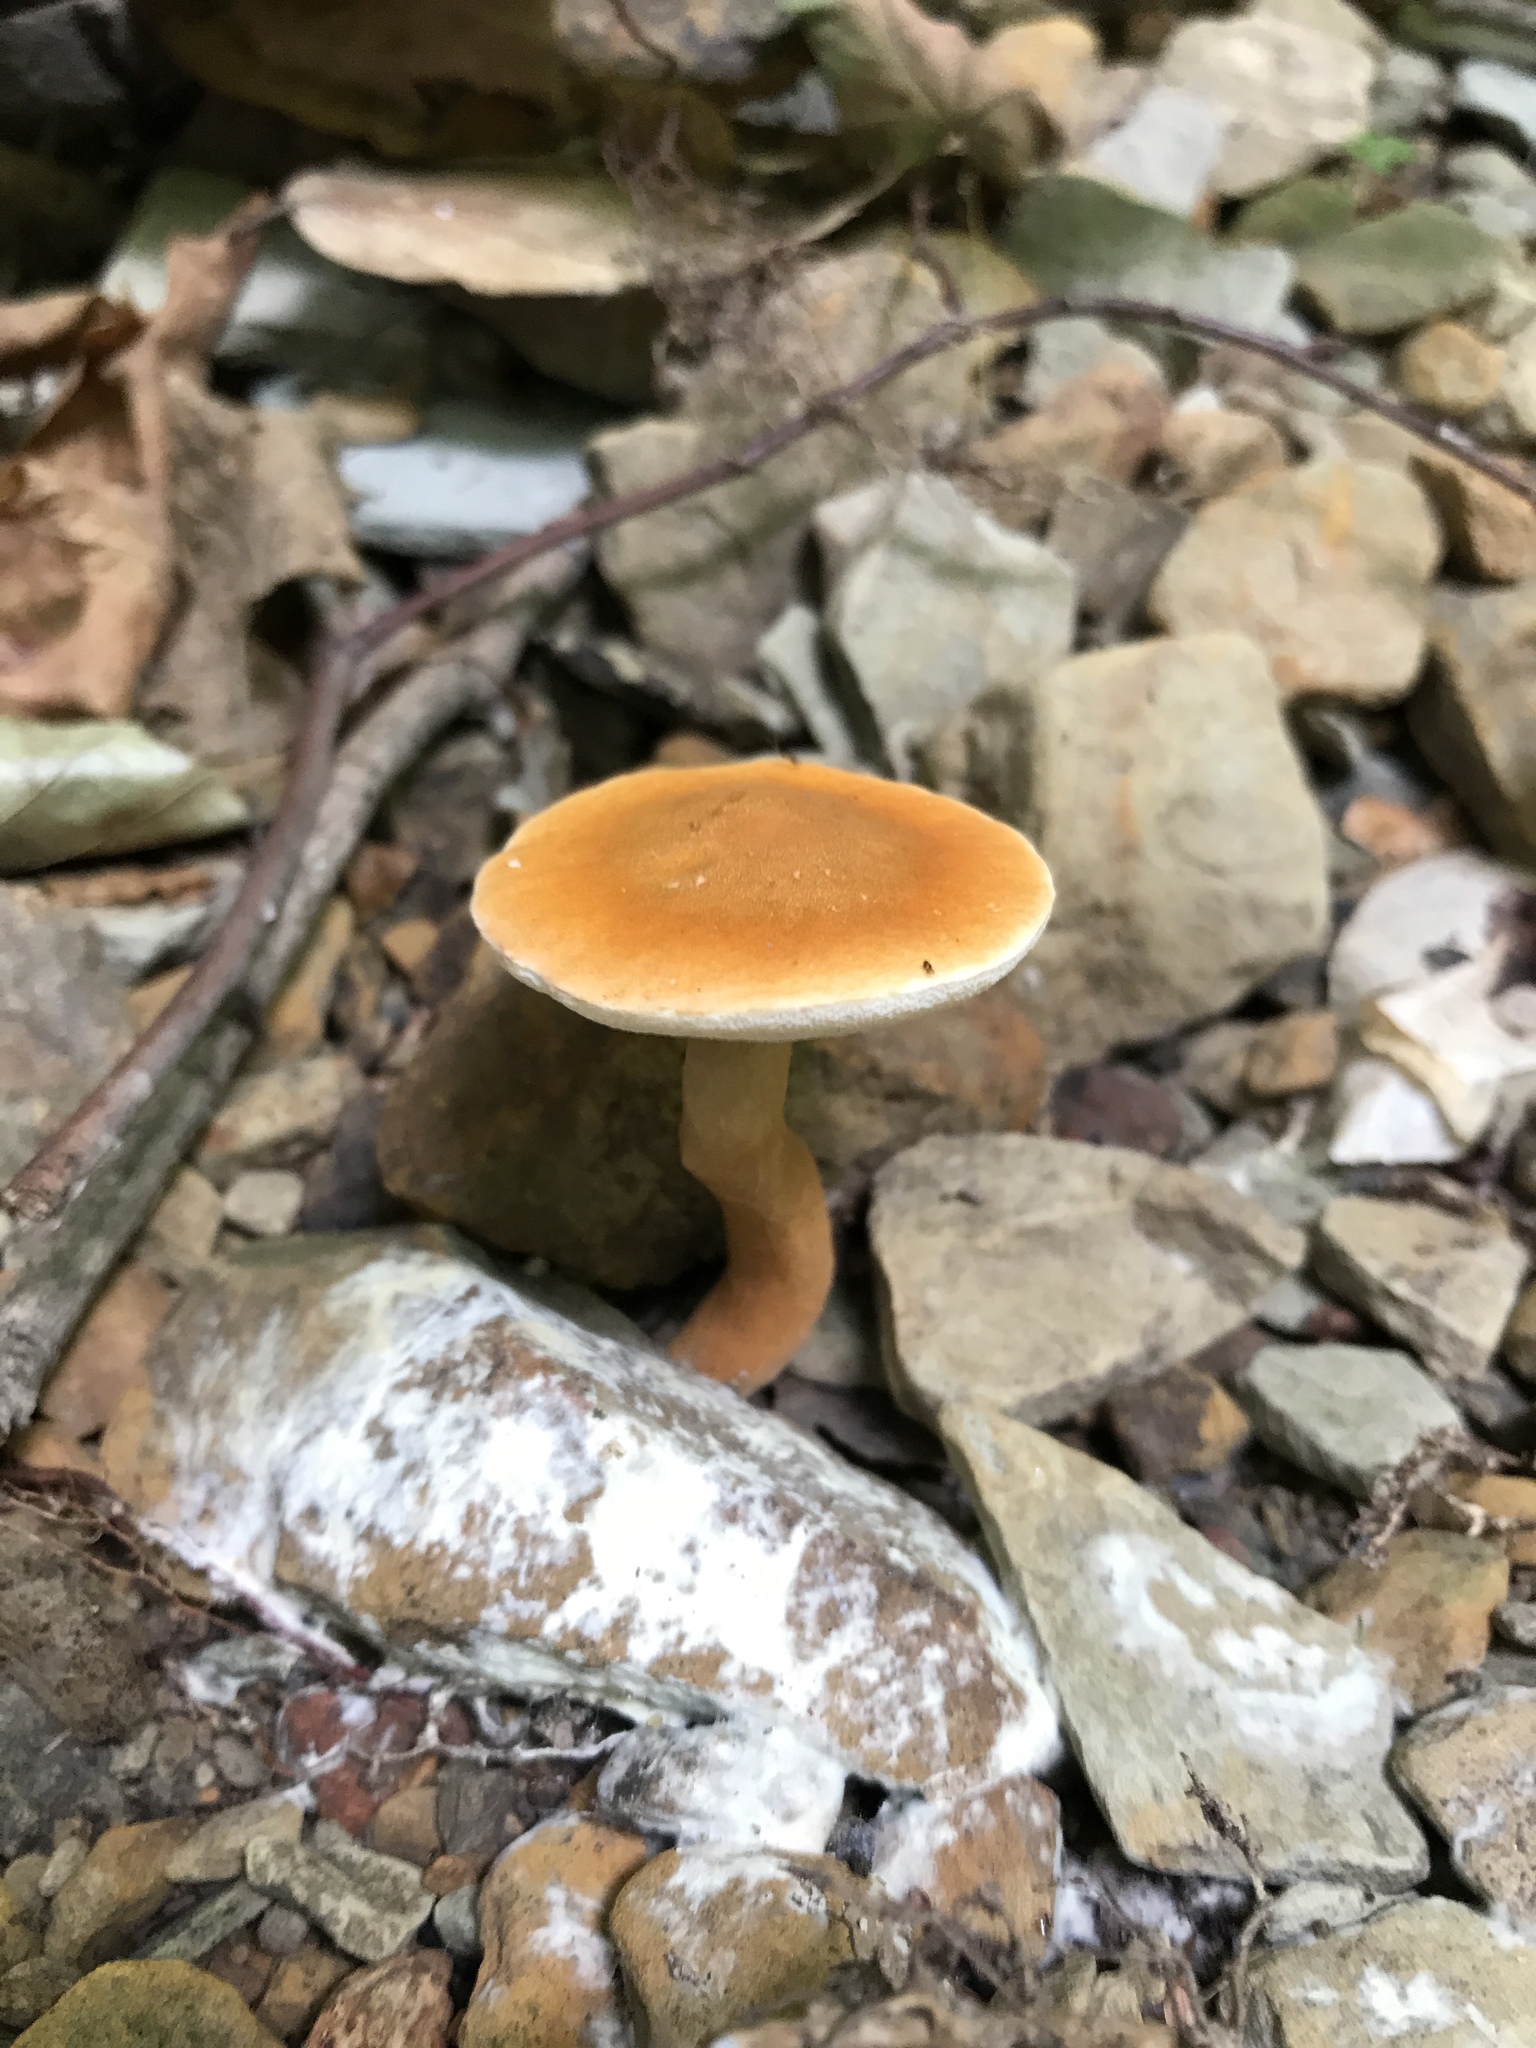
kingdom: Fungi
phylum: Basidiomycota
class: Agaricomycetes
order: Boletales
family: Gyroporaceae
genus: Gyroporus
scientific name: Gyroporus castaneus
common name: Chestnut bolete
